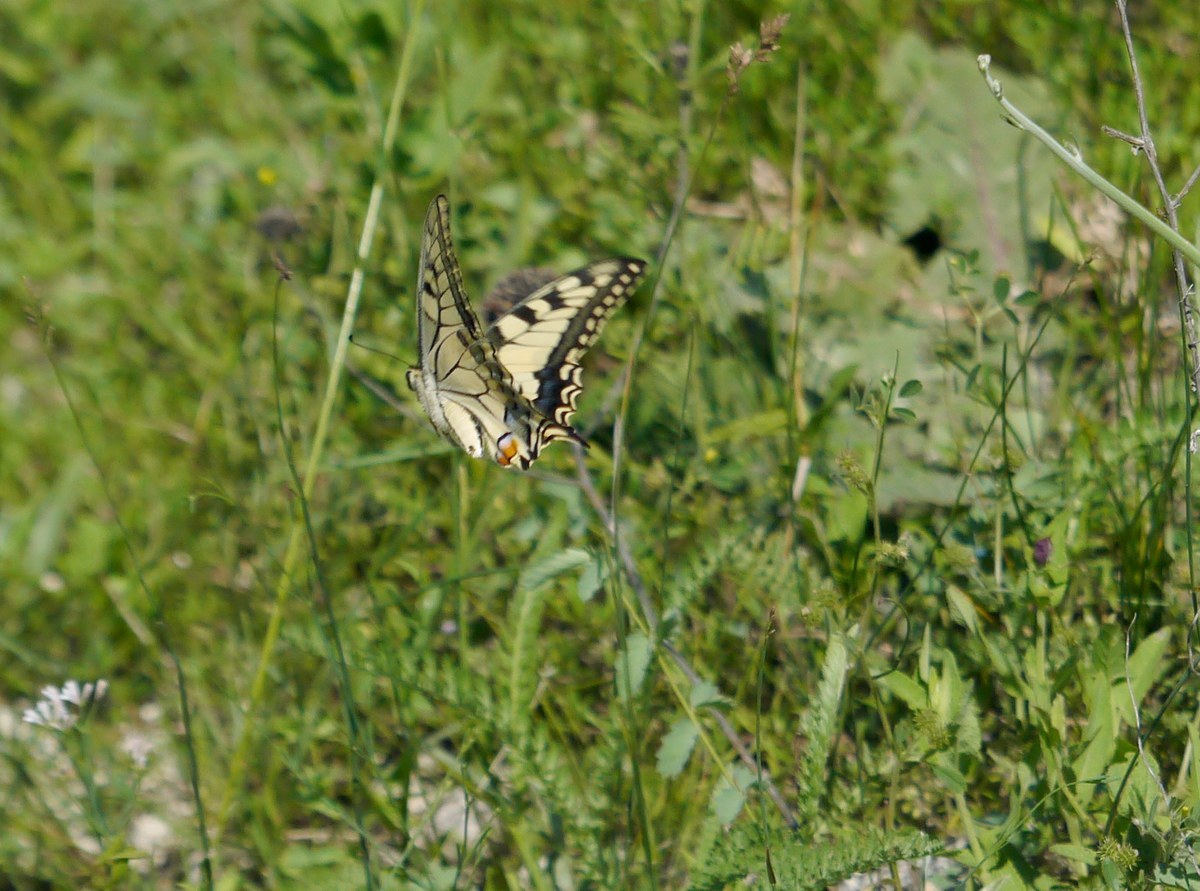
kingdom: Animalia
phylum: Arthropoda
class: Insecta
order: Lepidoptera
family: Papilionidae
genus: Papilio
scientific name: Papilio machaon
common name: Swallowtail
